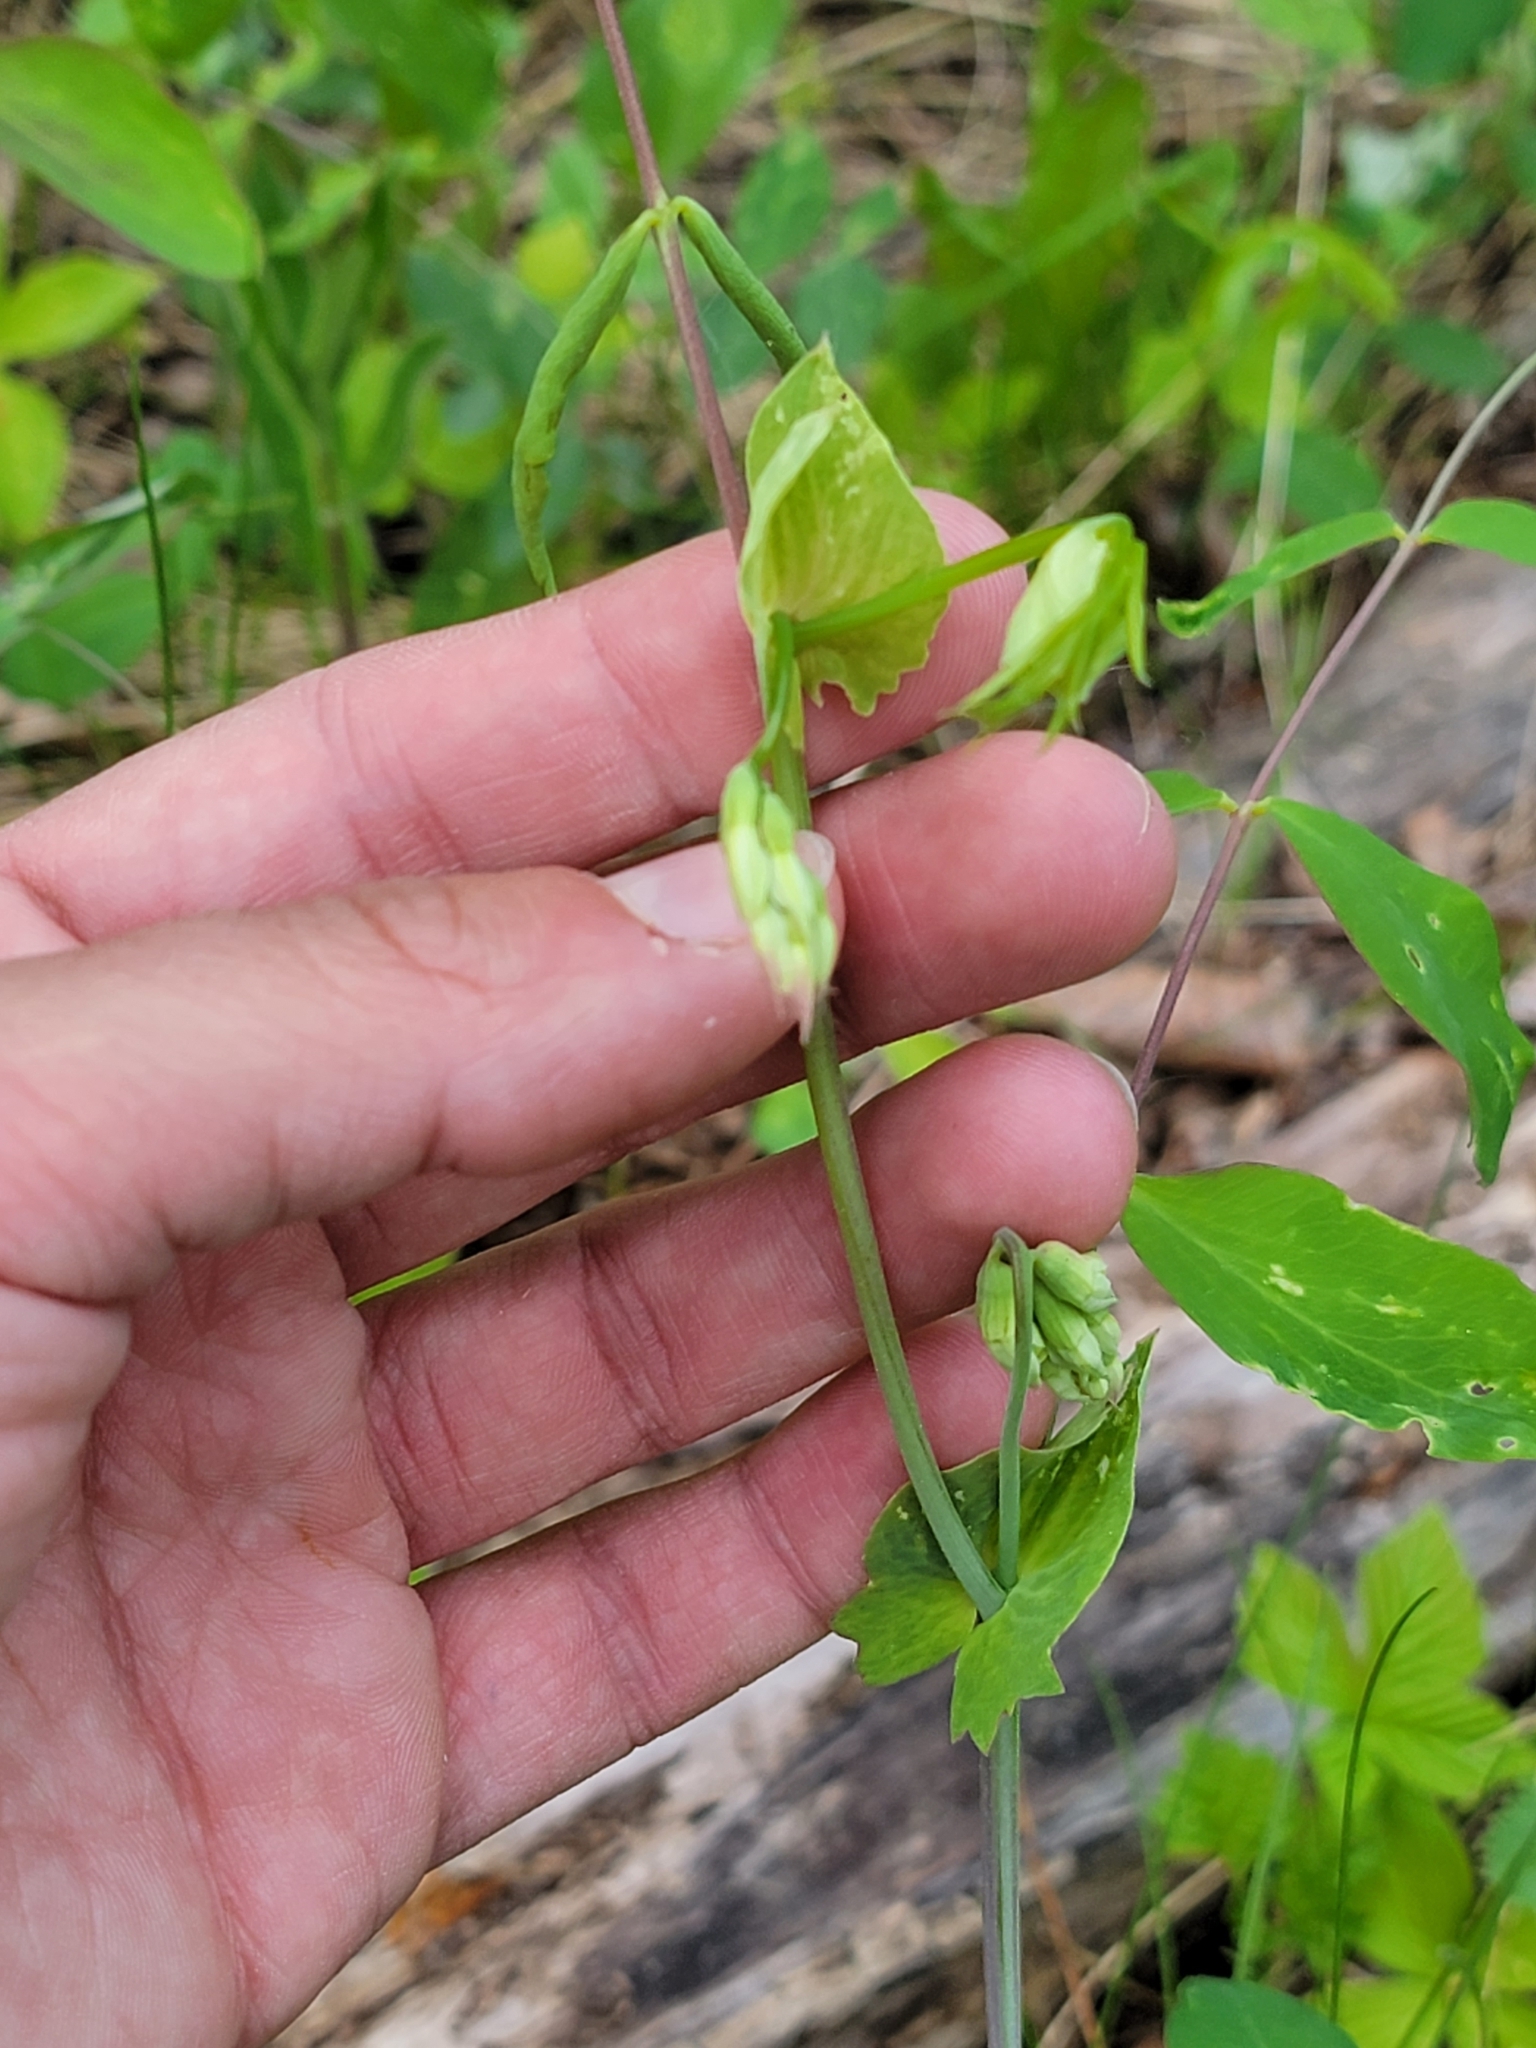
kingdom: Plantae
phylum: Tracheophyta
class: Magnoliopsida
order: Fabales
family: Fabaceae
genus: Lathyrus
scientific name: Lathyrus ochroleucus
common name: Pale vetchling
